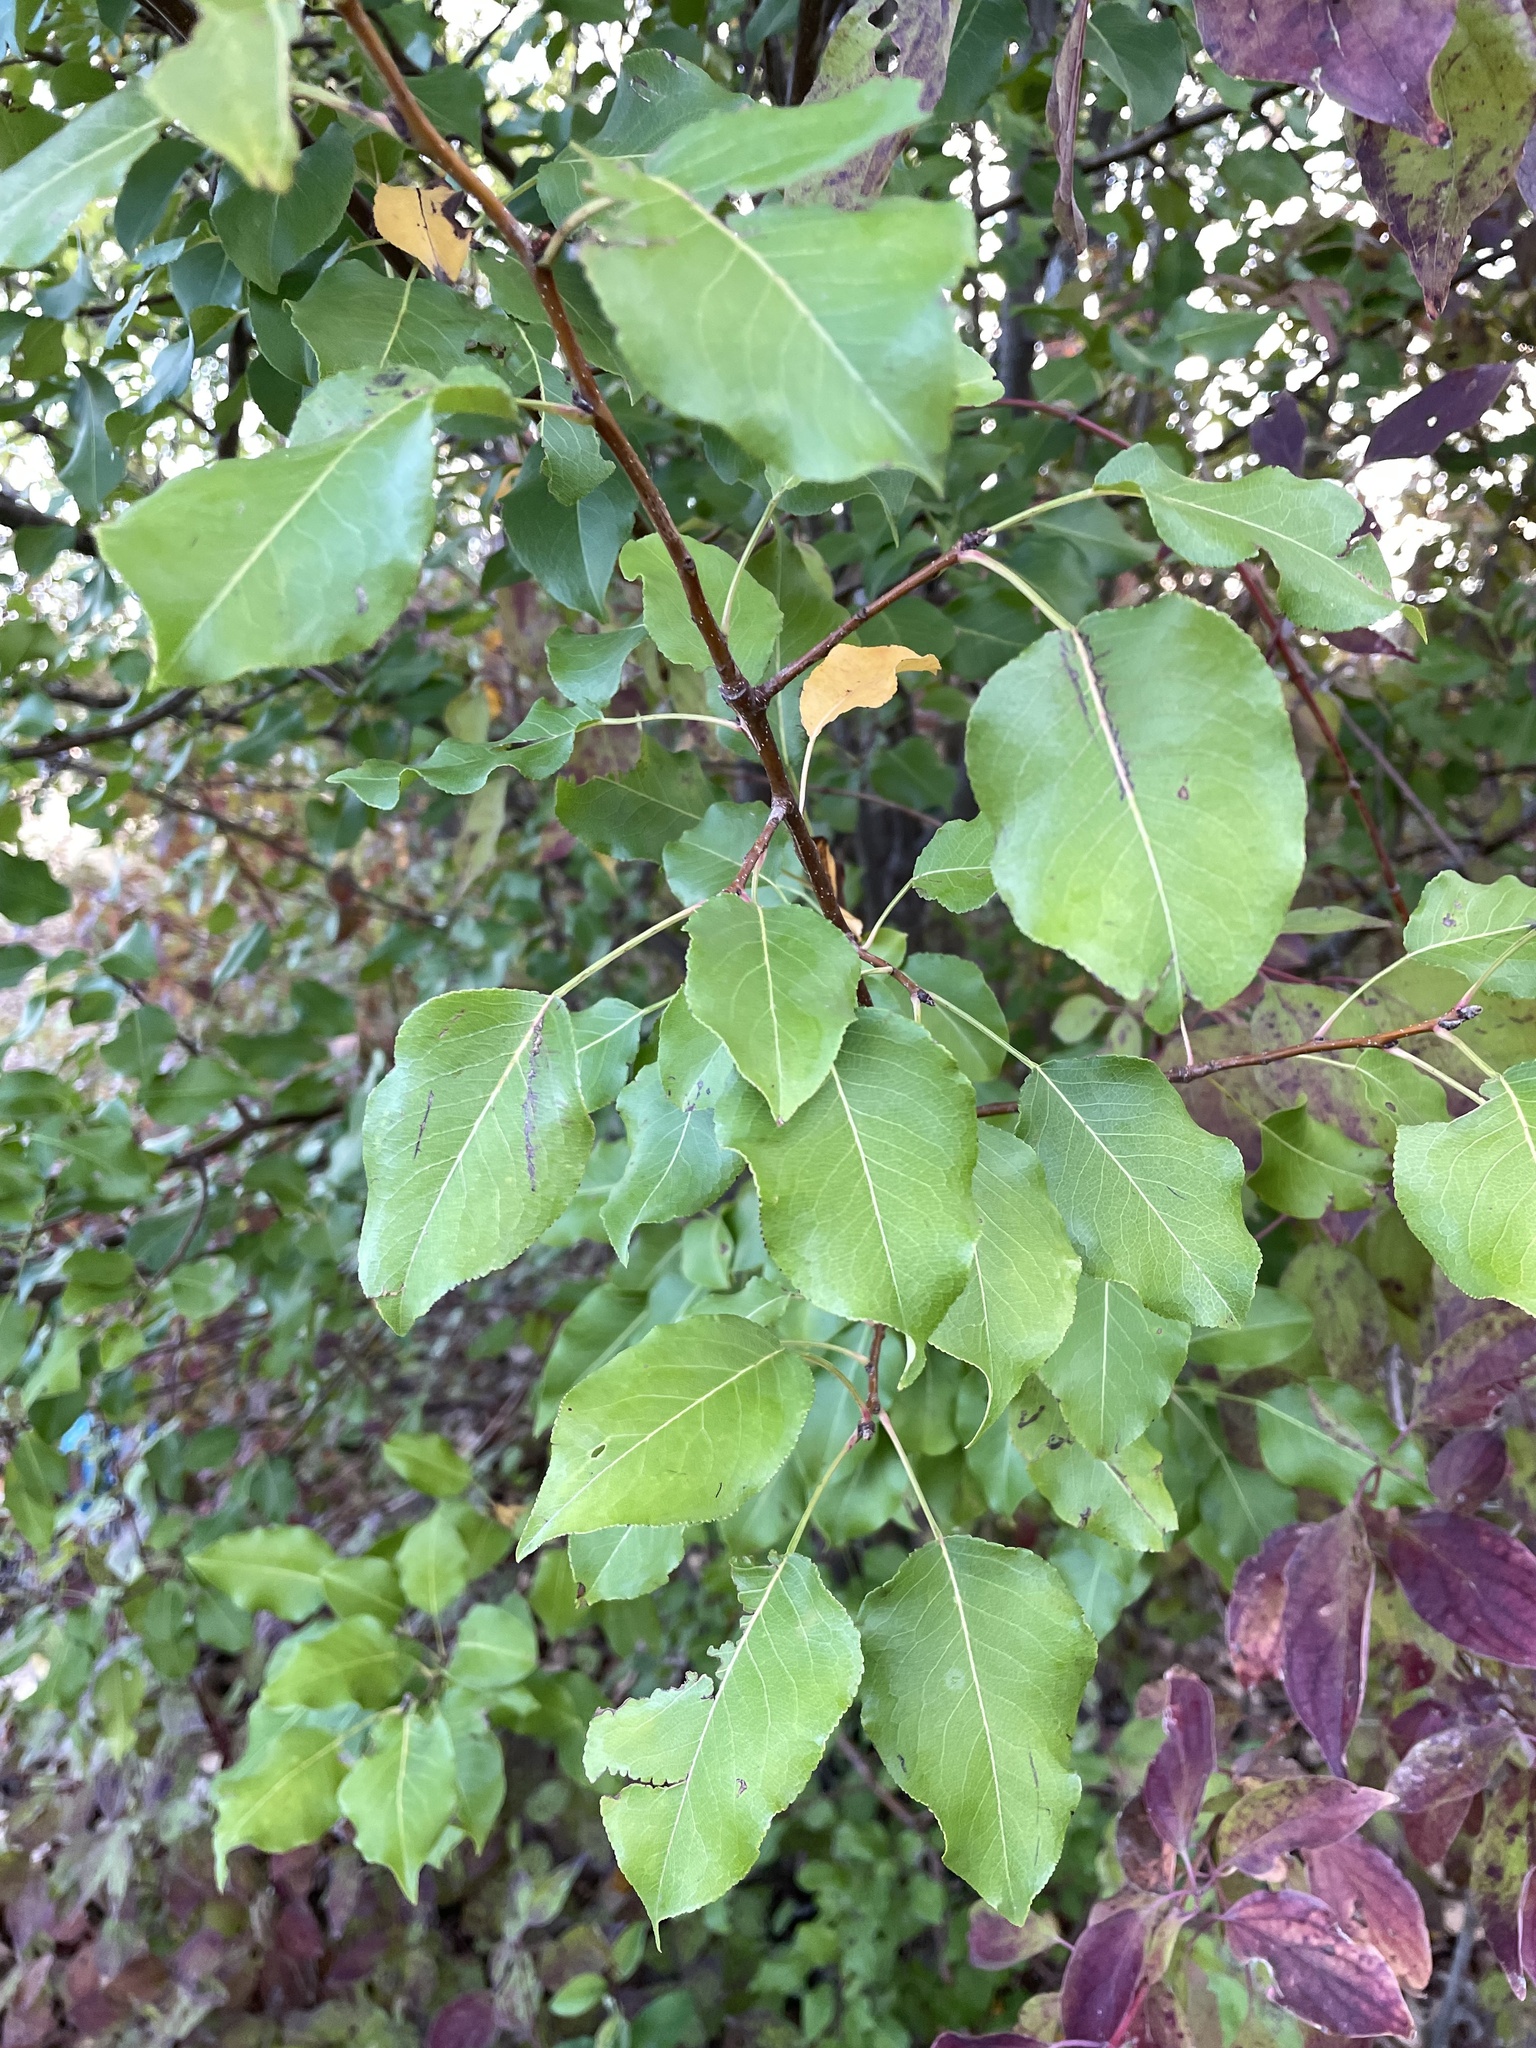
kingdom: Plantae
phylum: Tracheophyta
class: Magnoliopsida
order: Rosales
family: Rosaceae
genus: Pyrus
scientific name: Pyrus calleryana
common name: Callery pear
